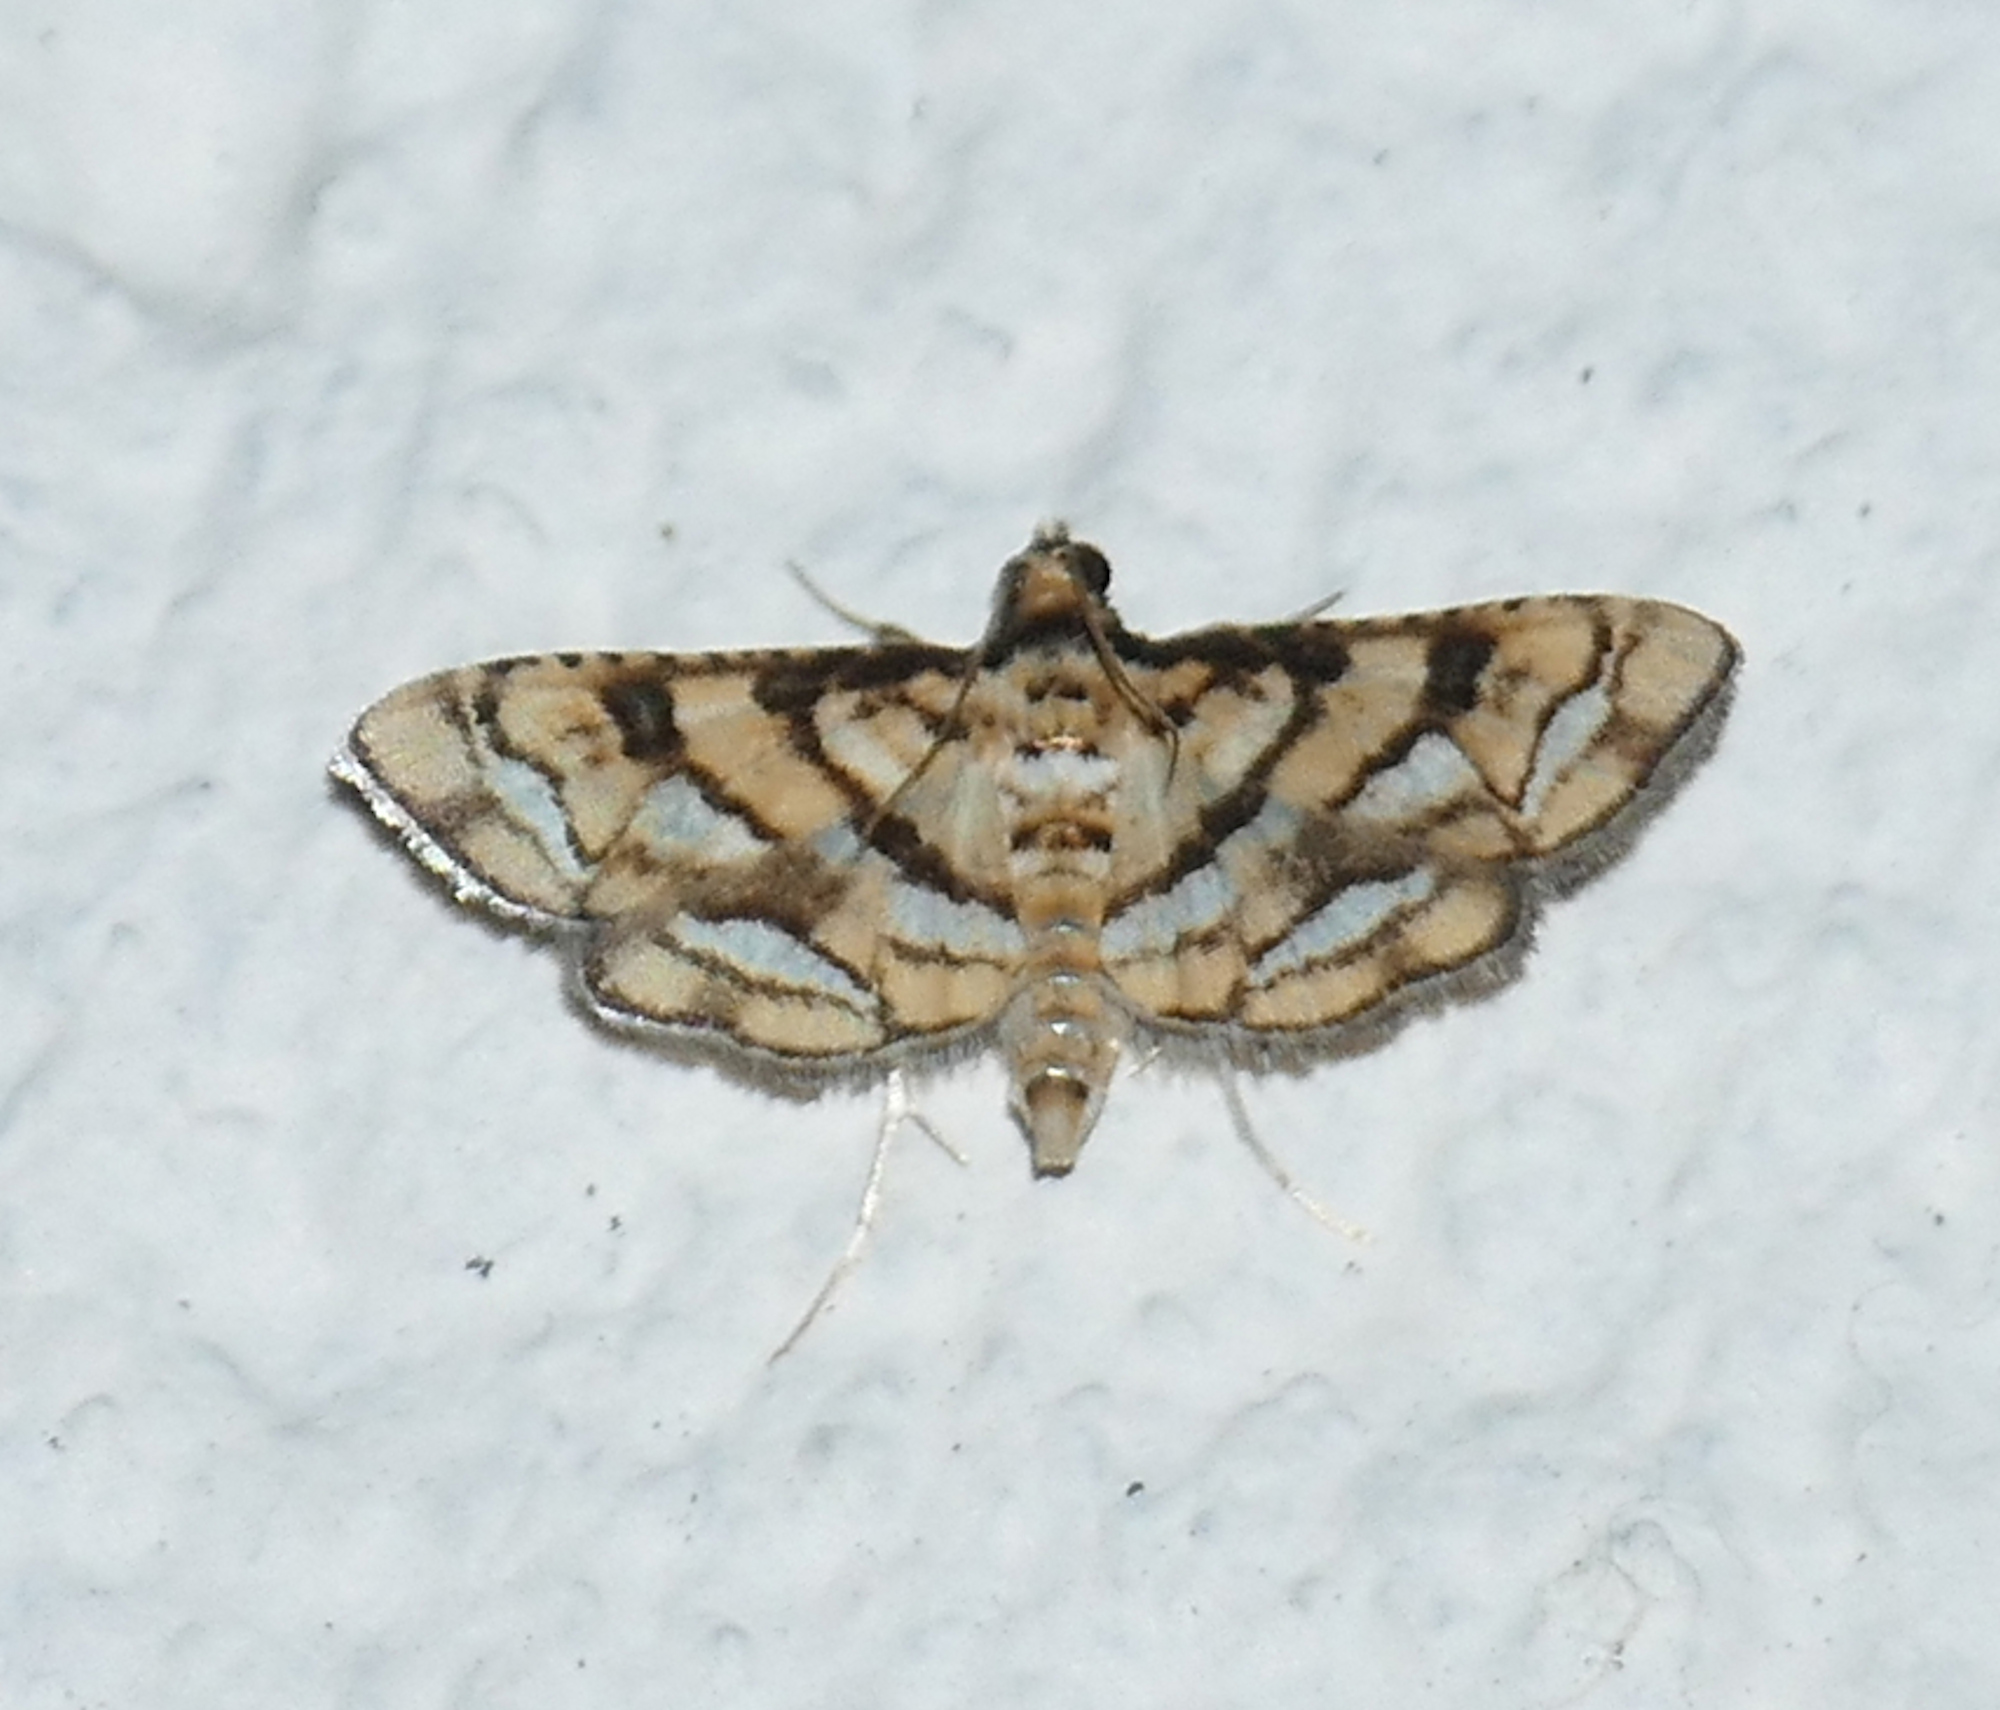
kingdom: Animalia
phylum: Arthropoda
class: Insecta
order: Lepidoptera
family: Crambidae
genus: Hileithia
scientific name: Hileithia magualis
